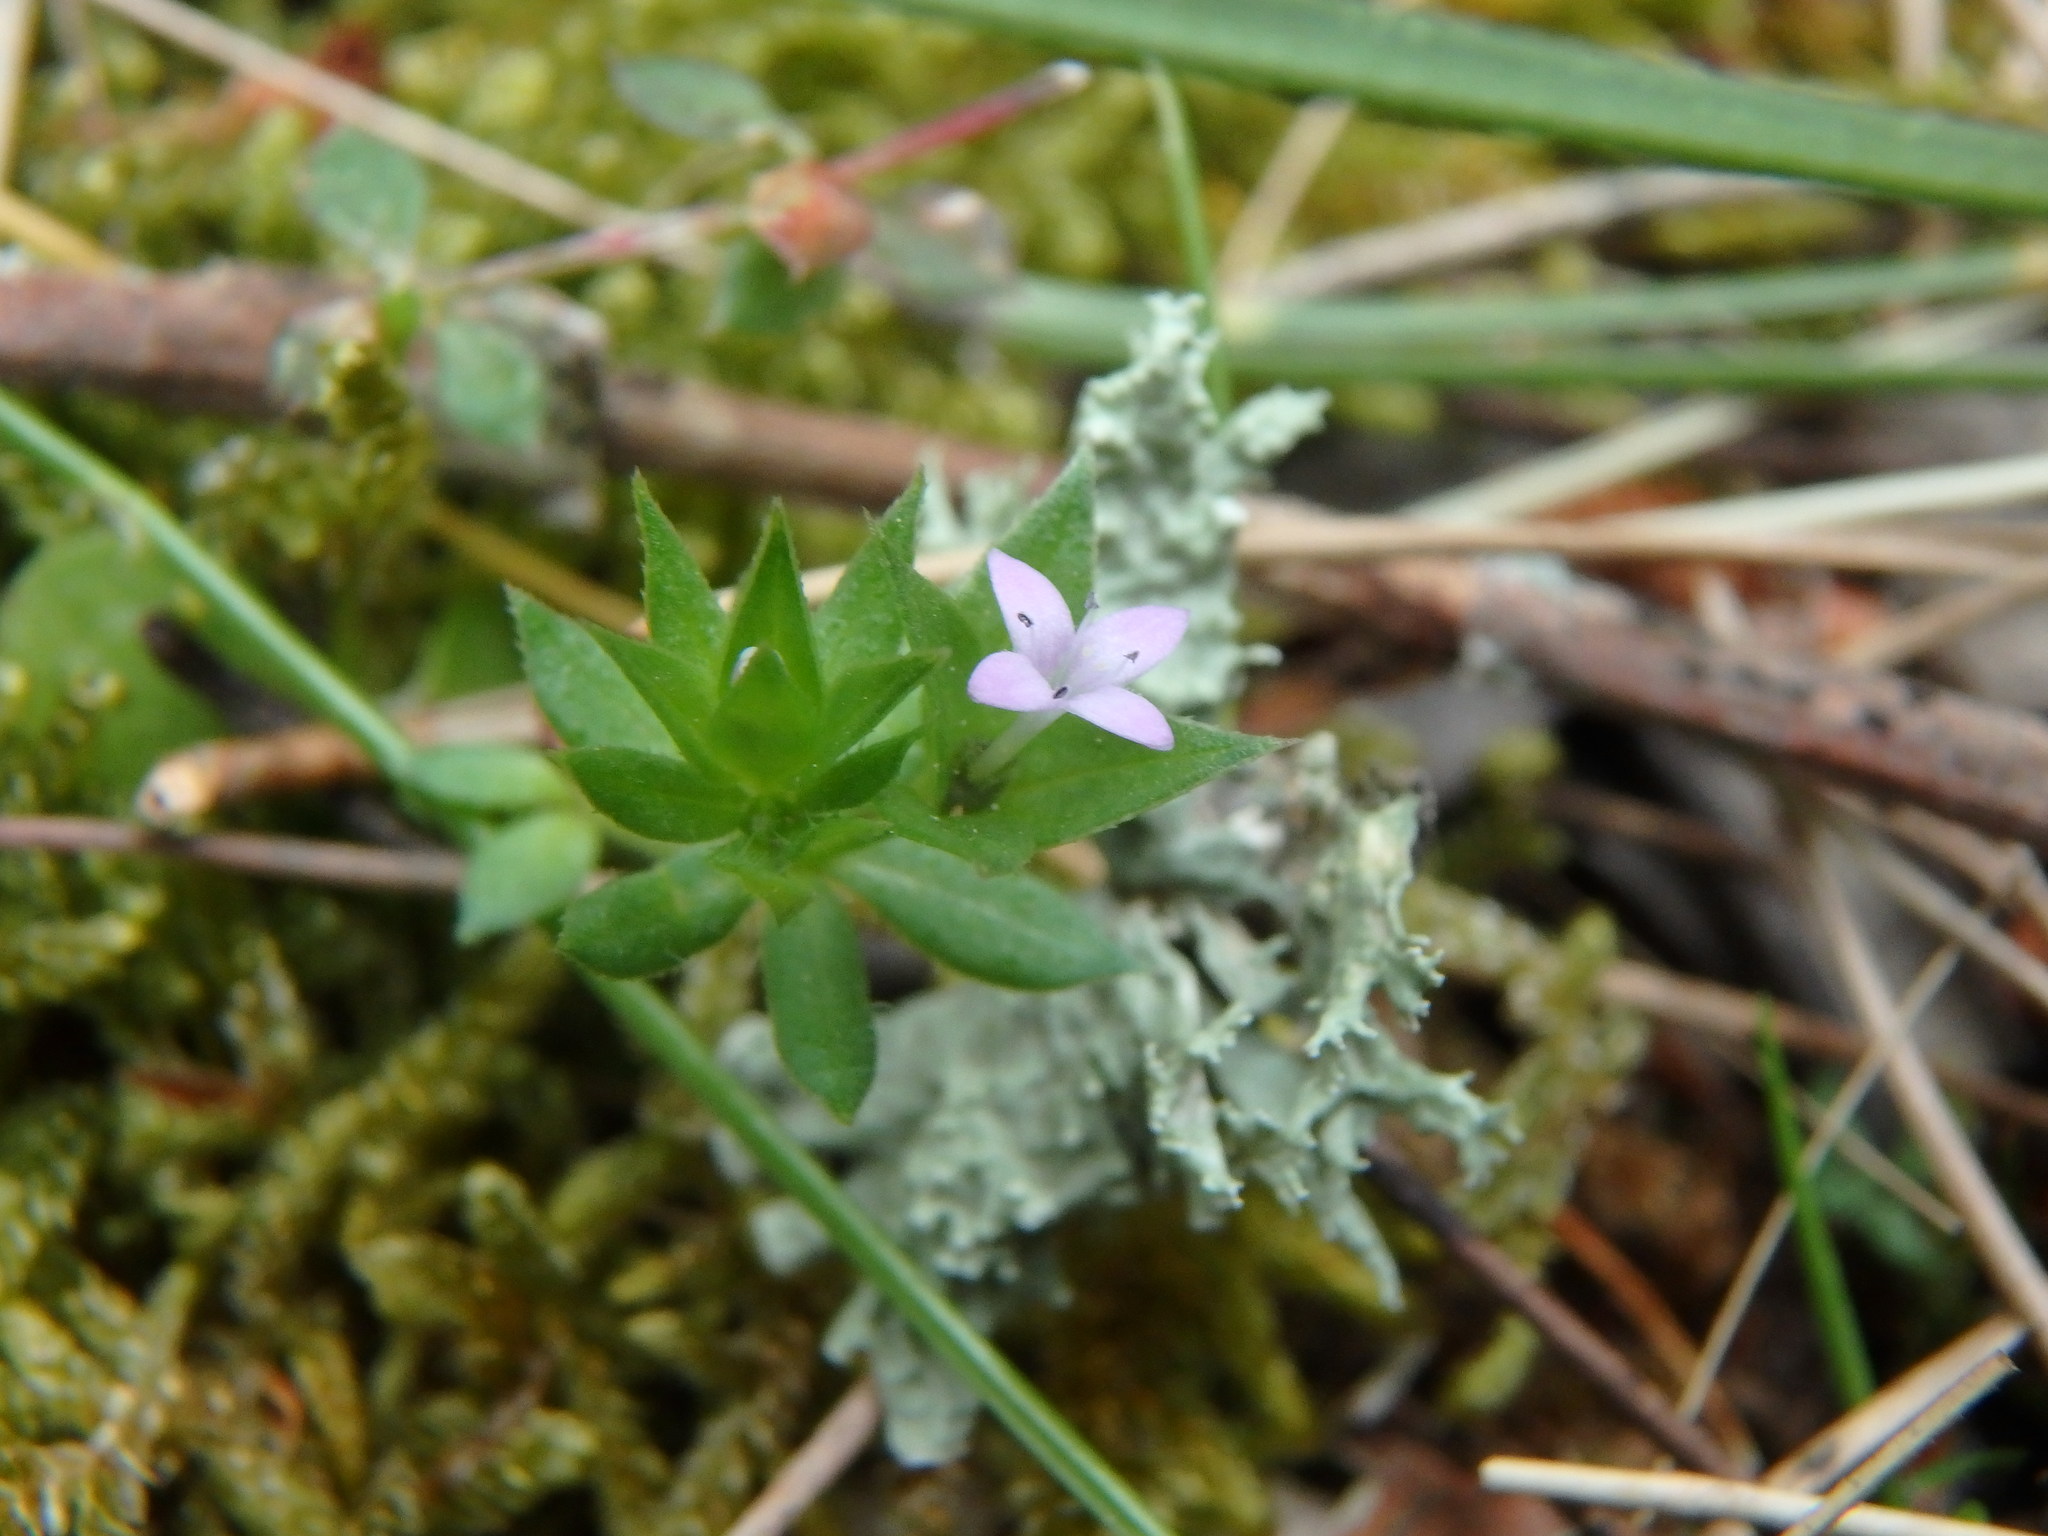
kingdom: Plantae
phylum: Tracheophyta
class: Magnoliopsida
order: Gentianales
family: Rubiaceae
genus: Sherardia
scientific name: Sherardia arvensis
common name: Field madder
